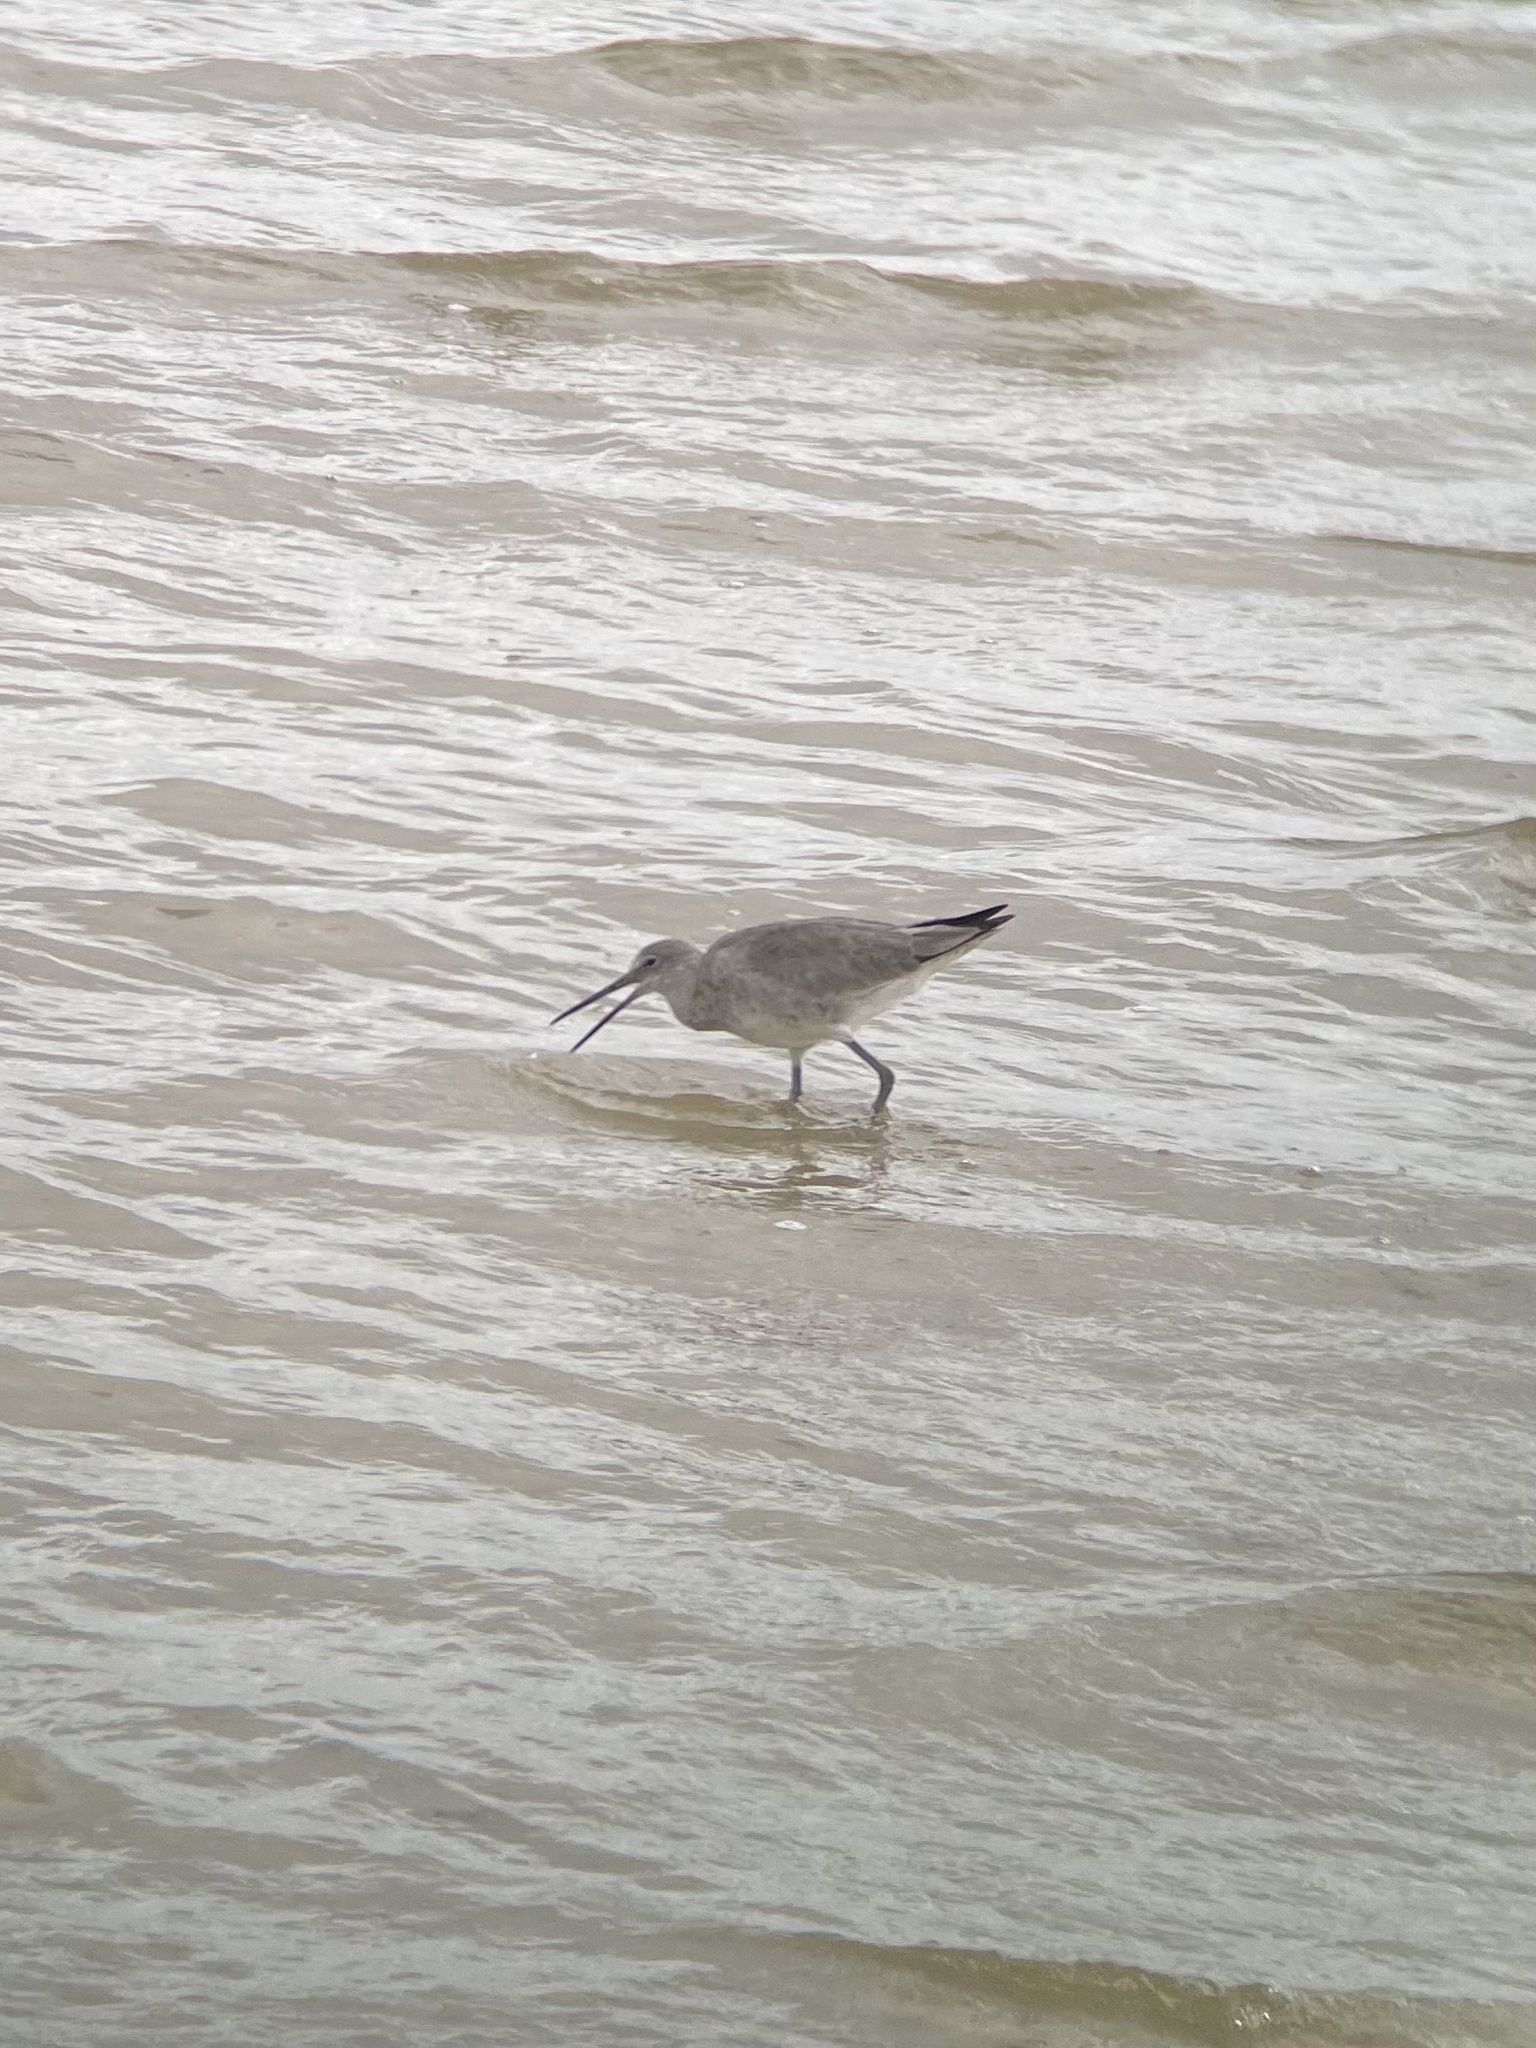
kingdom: Animalia
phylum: Chordata
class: Aves
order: Charadriiformes
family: Scolopacidae
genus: Tringa
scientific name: Tringa semipalmata
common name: Willet
